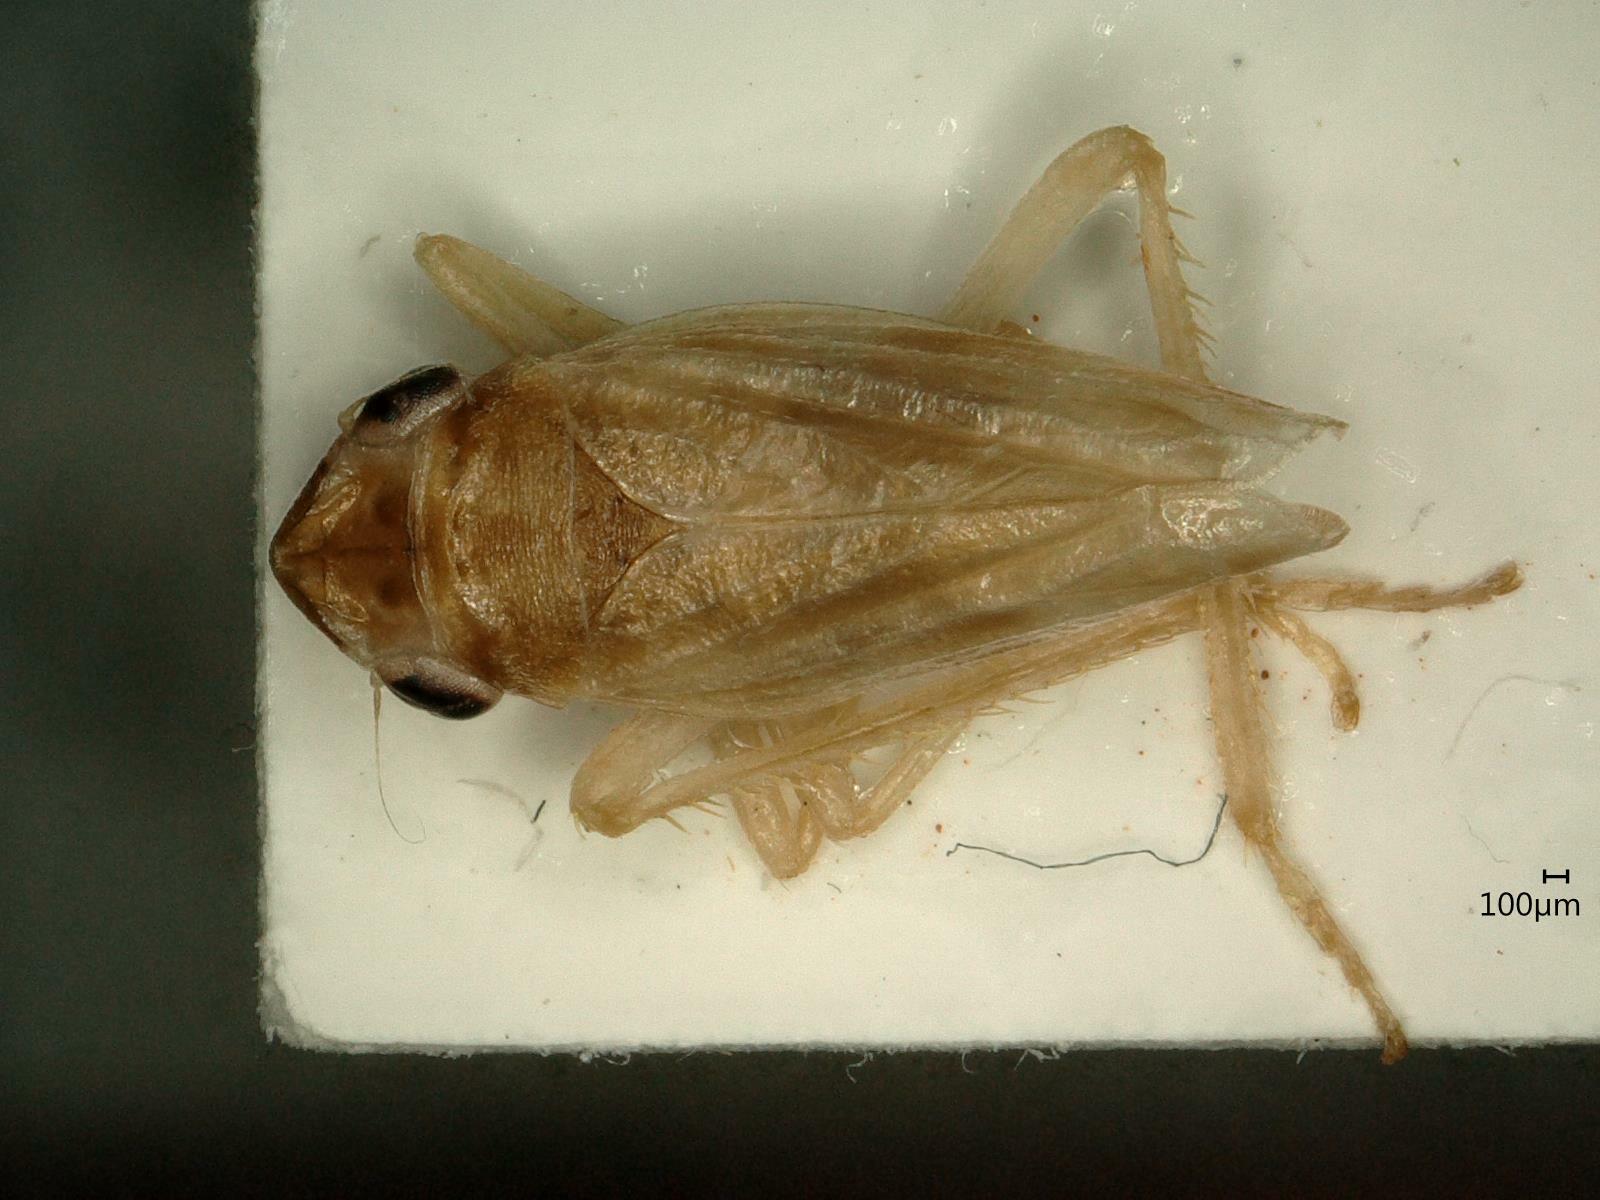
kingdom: Animalia
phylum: Arthropoda
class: Insecta
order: Hemiptera
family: Cicadellidae
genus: Evacanthus
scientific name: Evacanthus acuminatus
